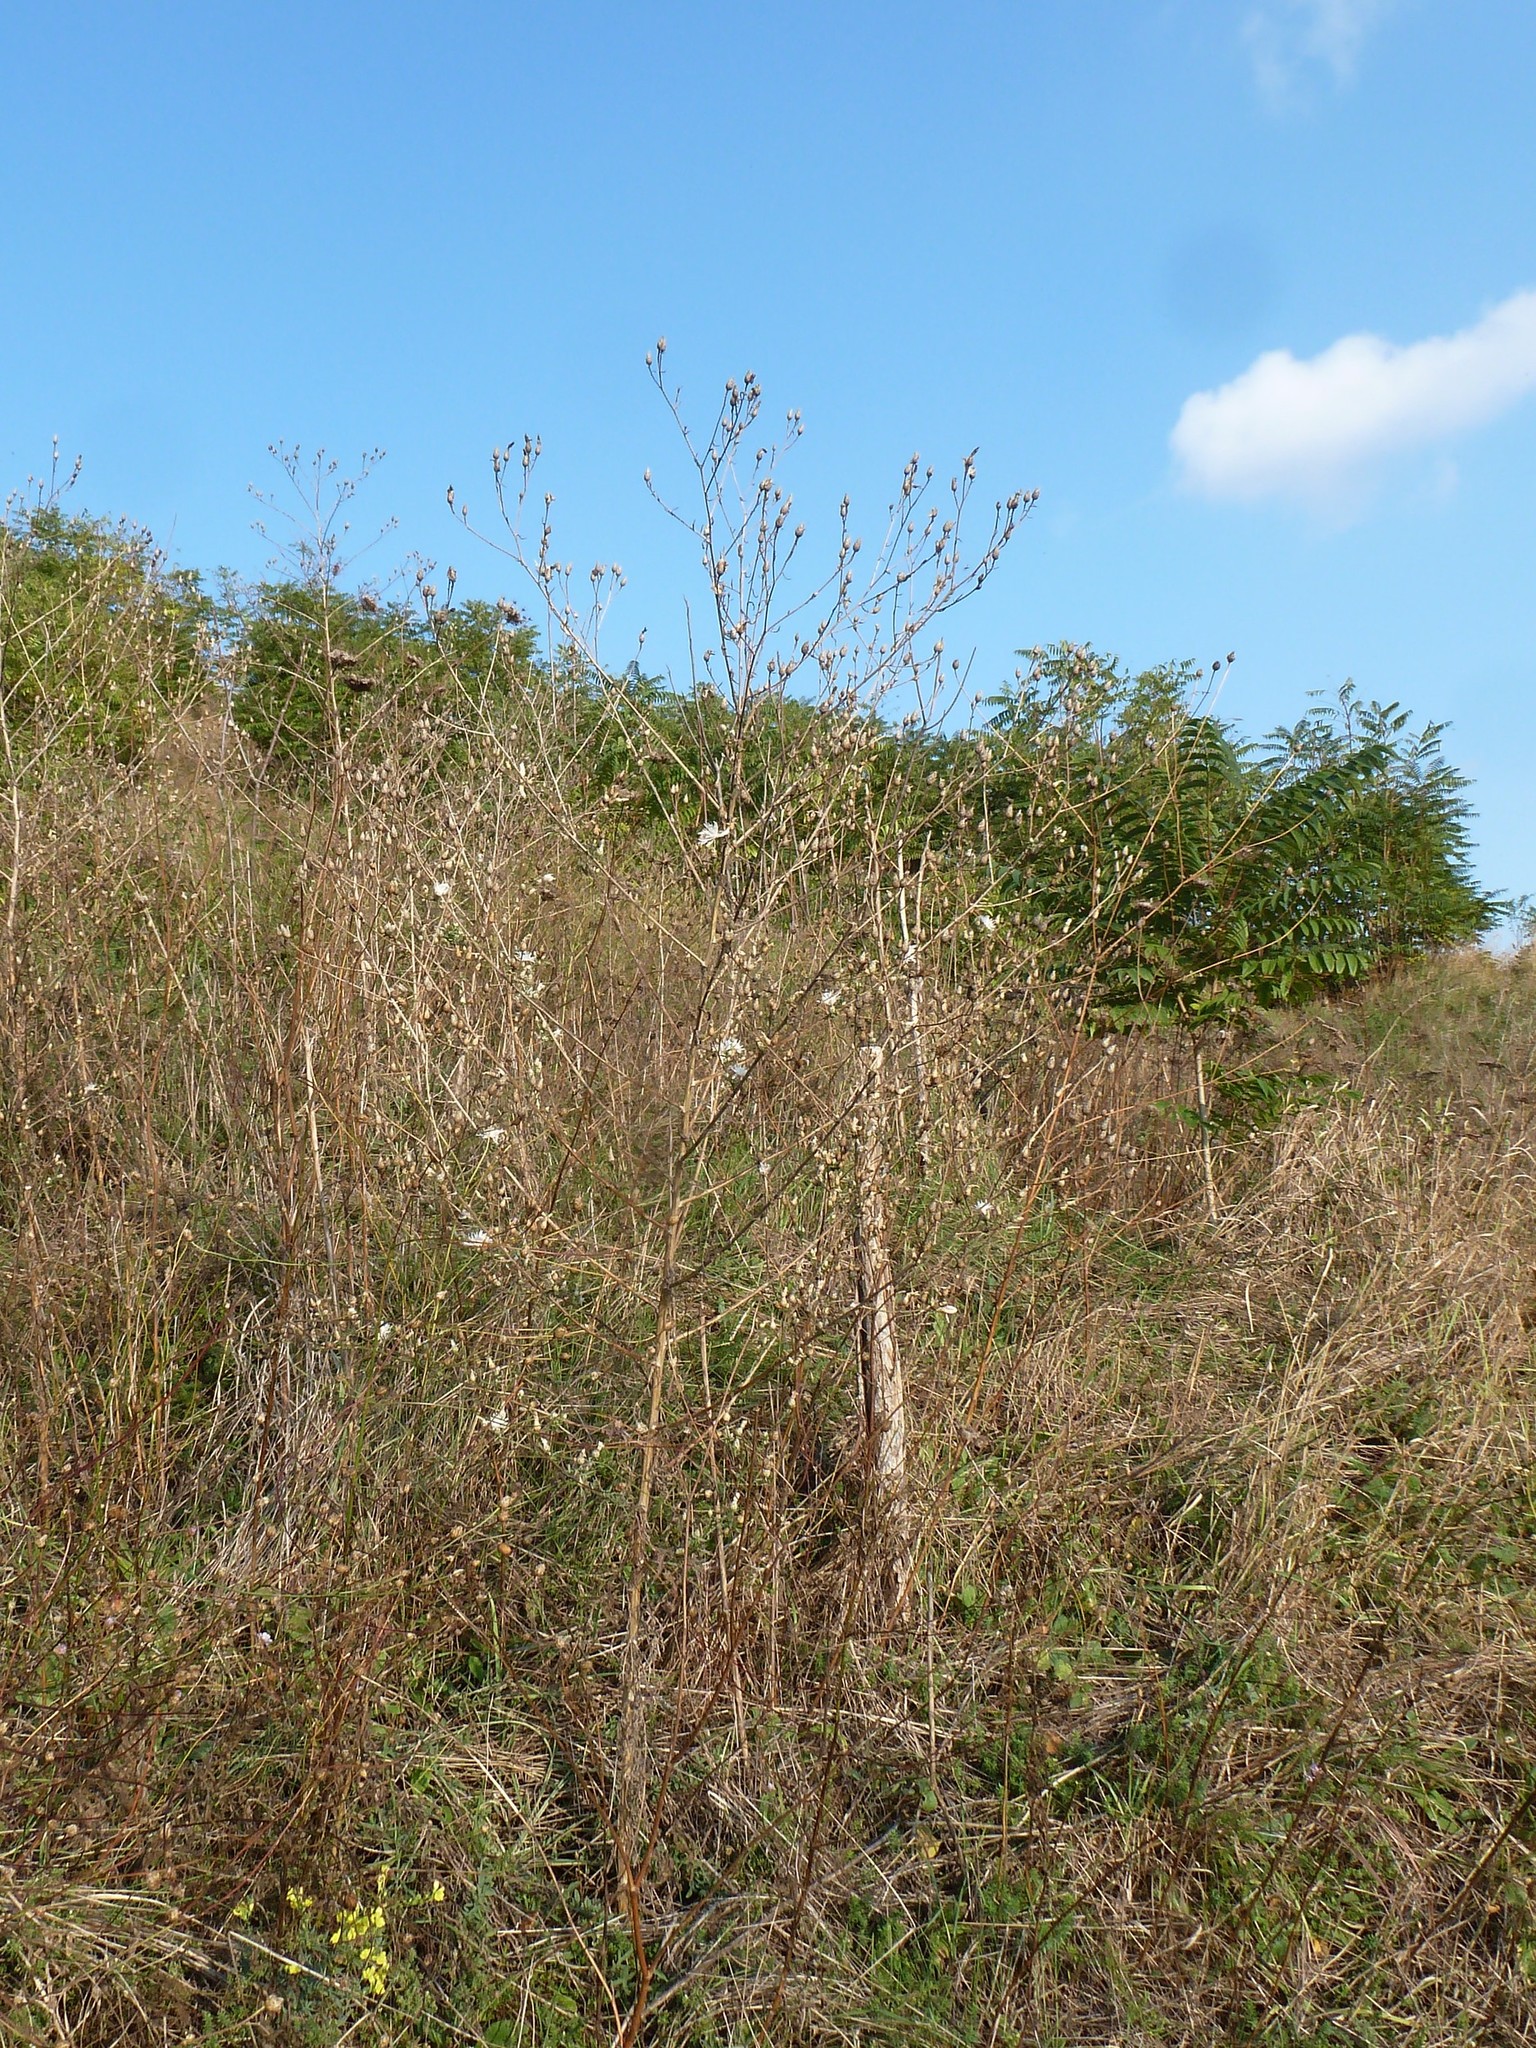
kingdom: Plantae
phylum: Tracheophyta
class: Magnoliopsida
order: Asterales
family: Asteraceae
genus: Centaurea
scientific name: Centaurea diffusa
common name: Diffuse knapweed
